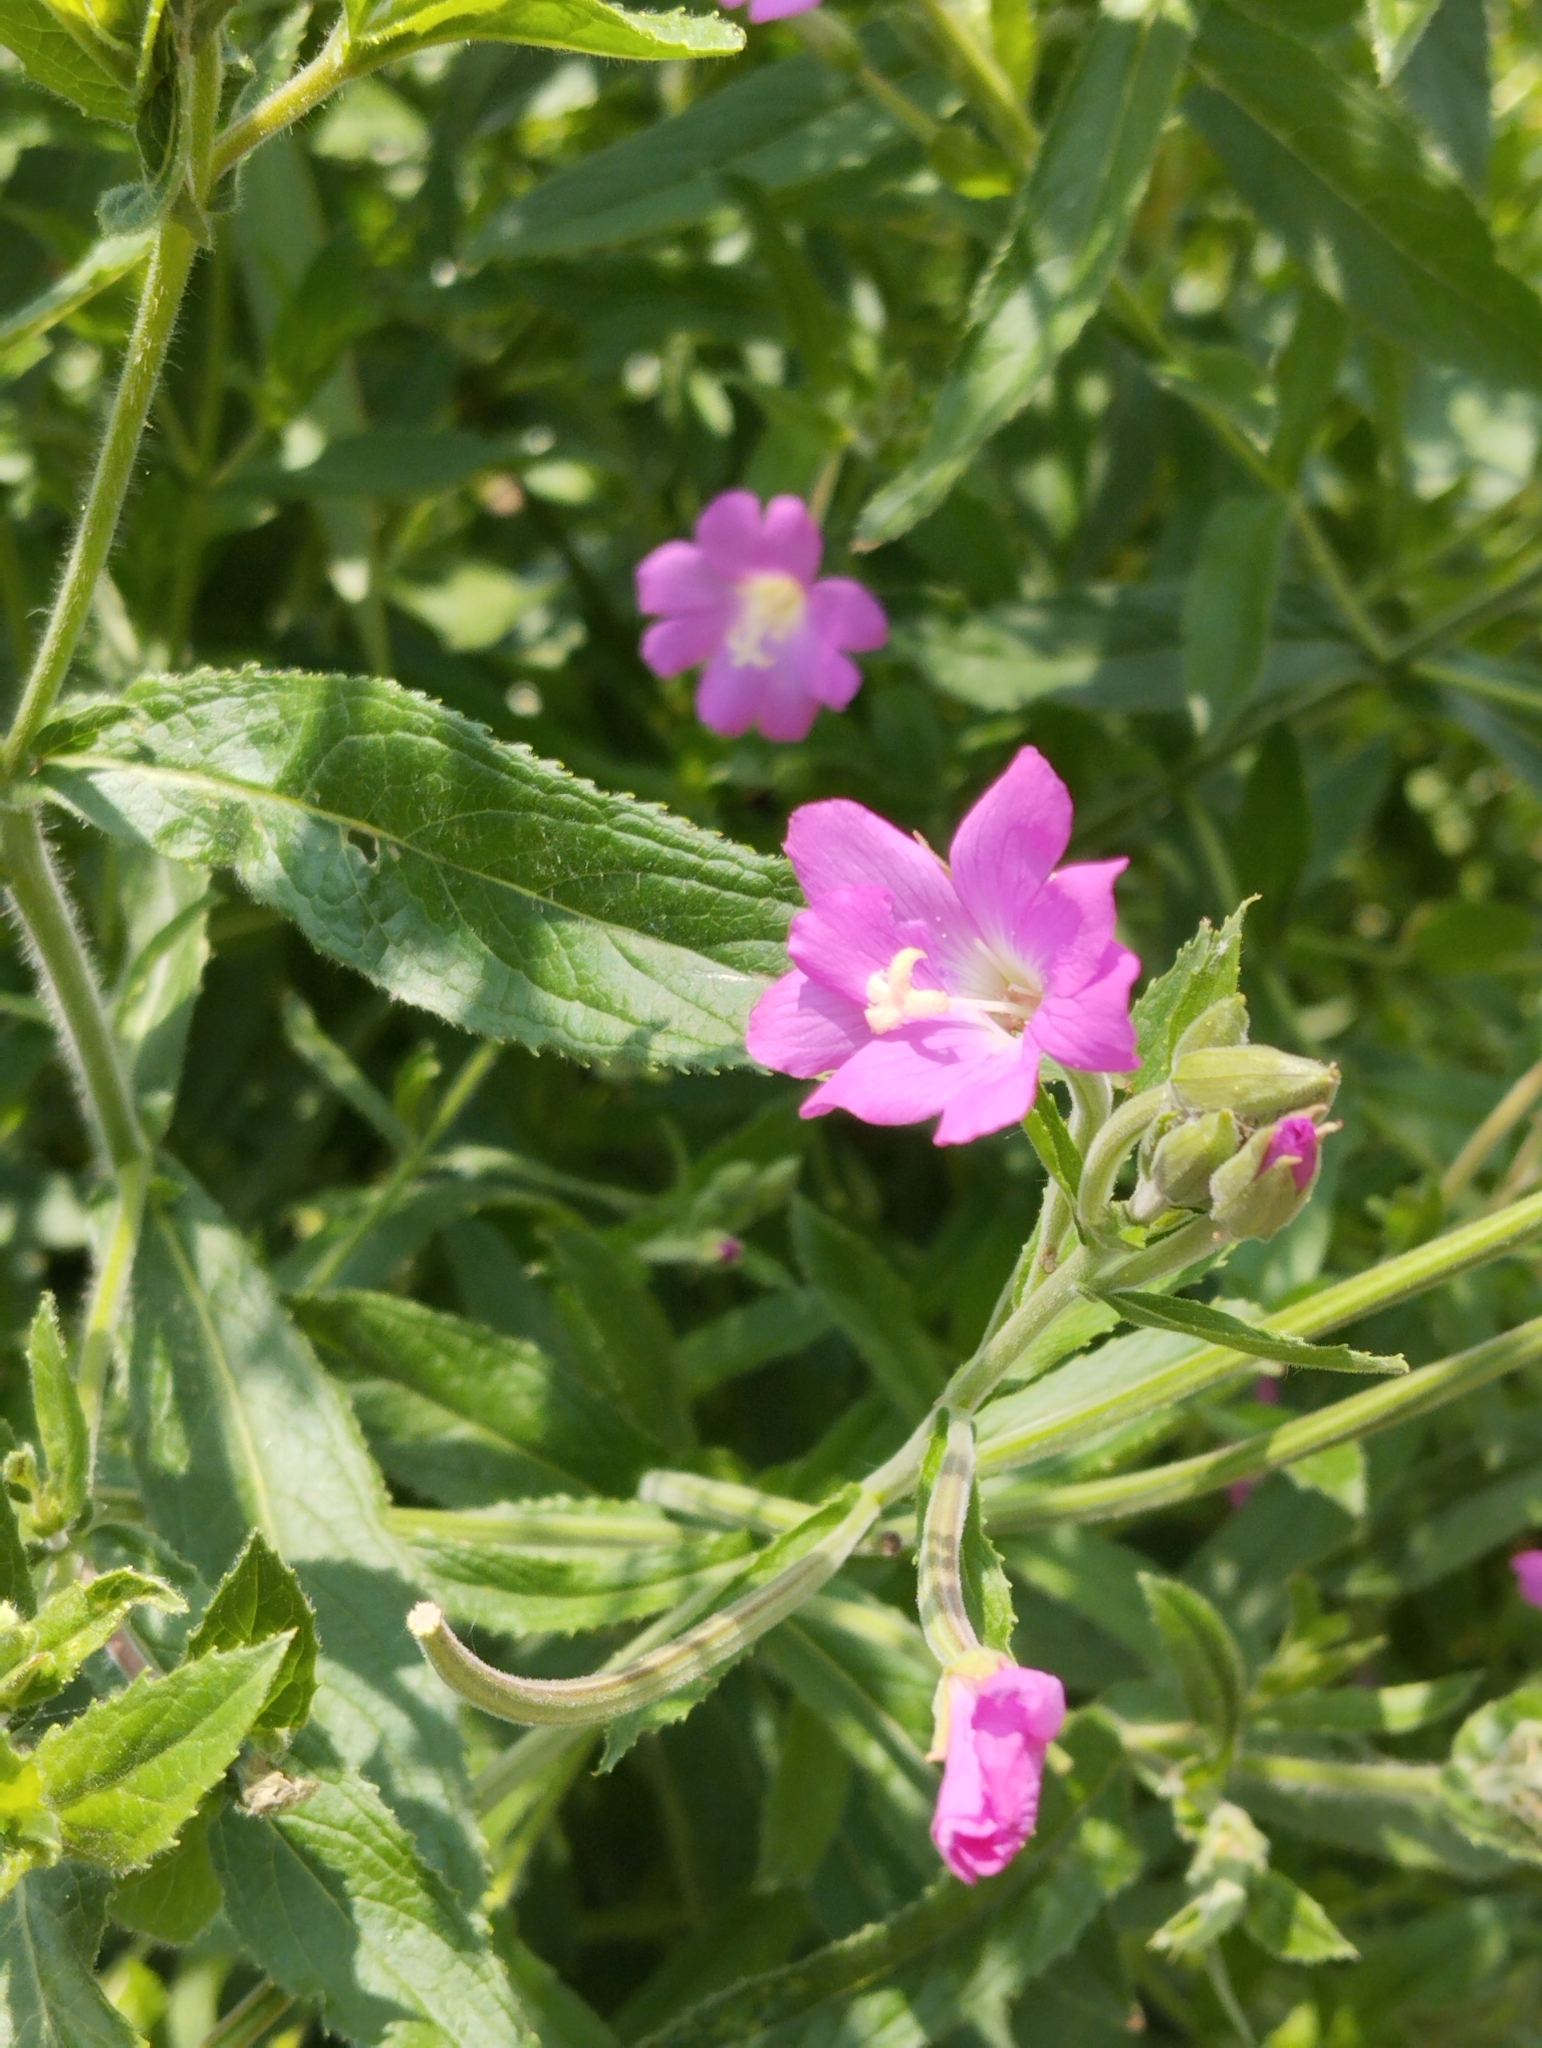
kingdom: Plantae
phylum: Tracheophyta
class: Magnoliopsida
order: Myrtales
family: Onagraceae
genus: Epilobium
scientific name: Epilobium hirsutum
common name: Great willowherb
